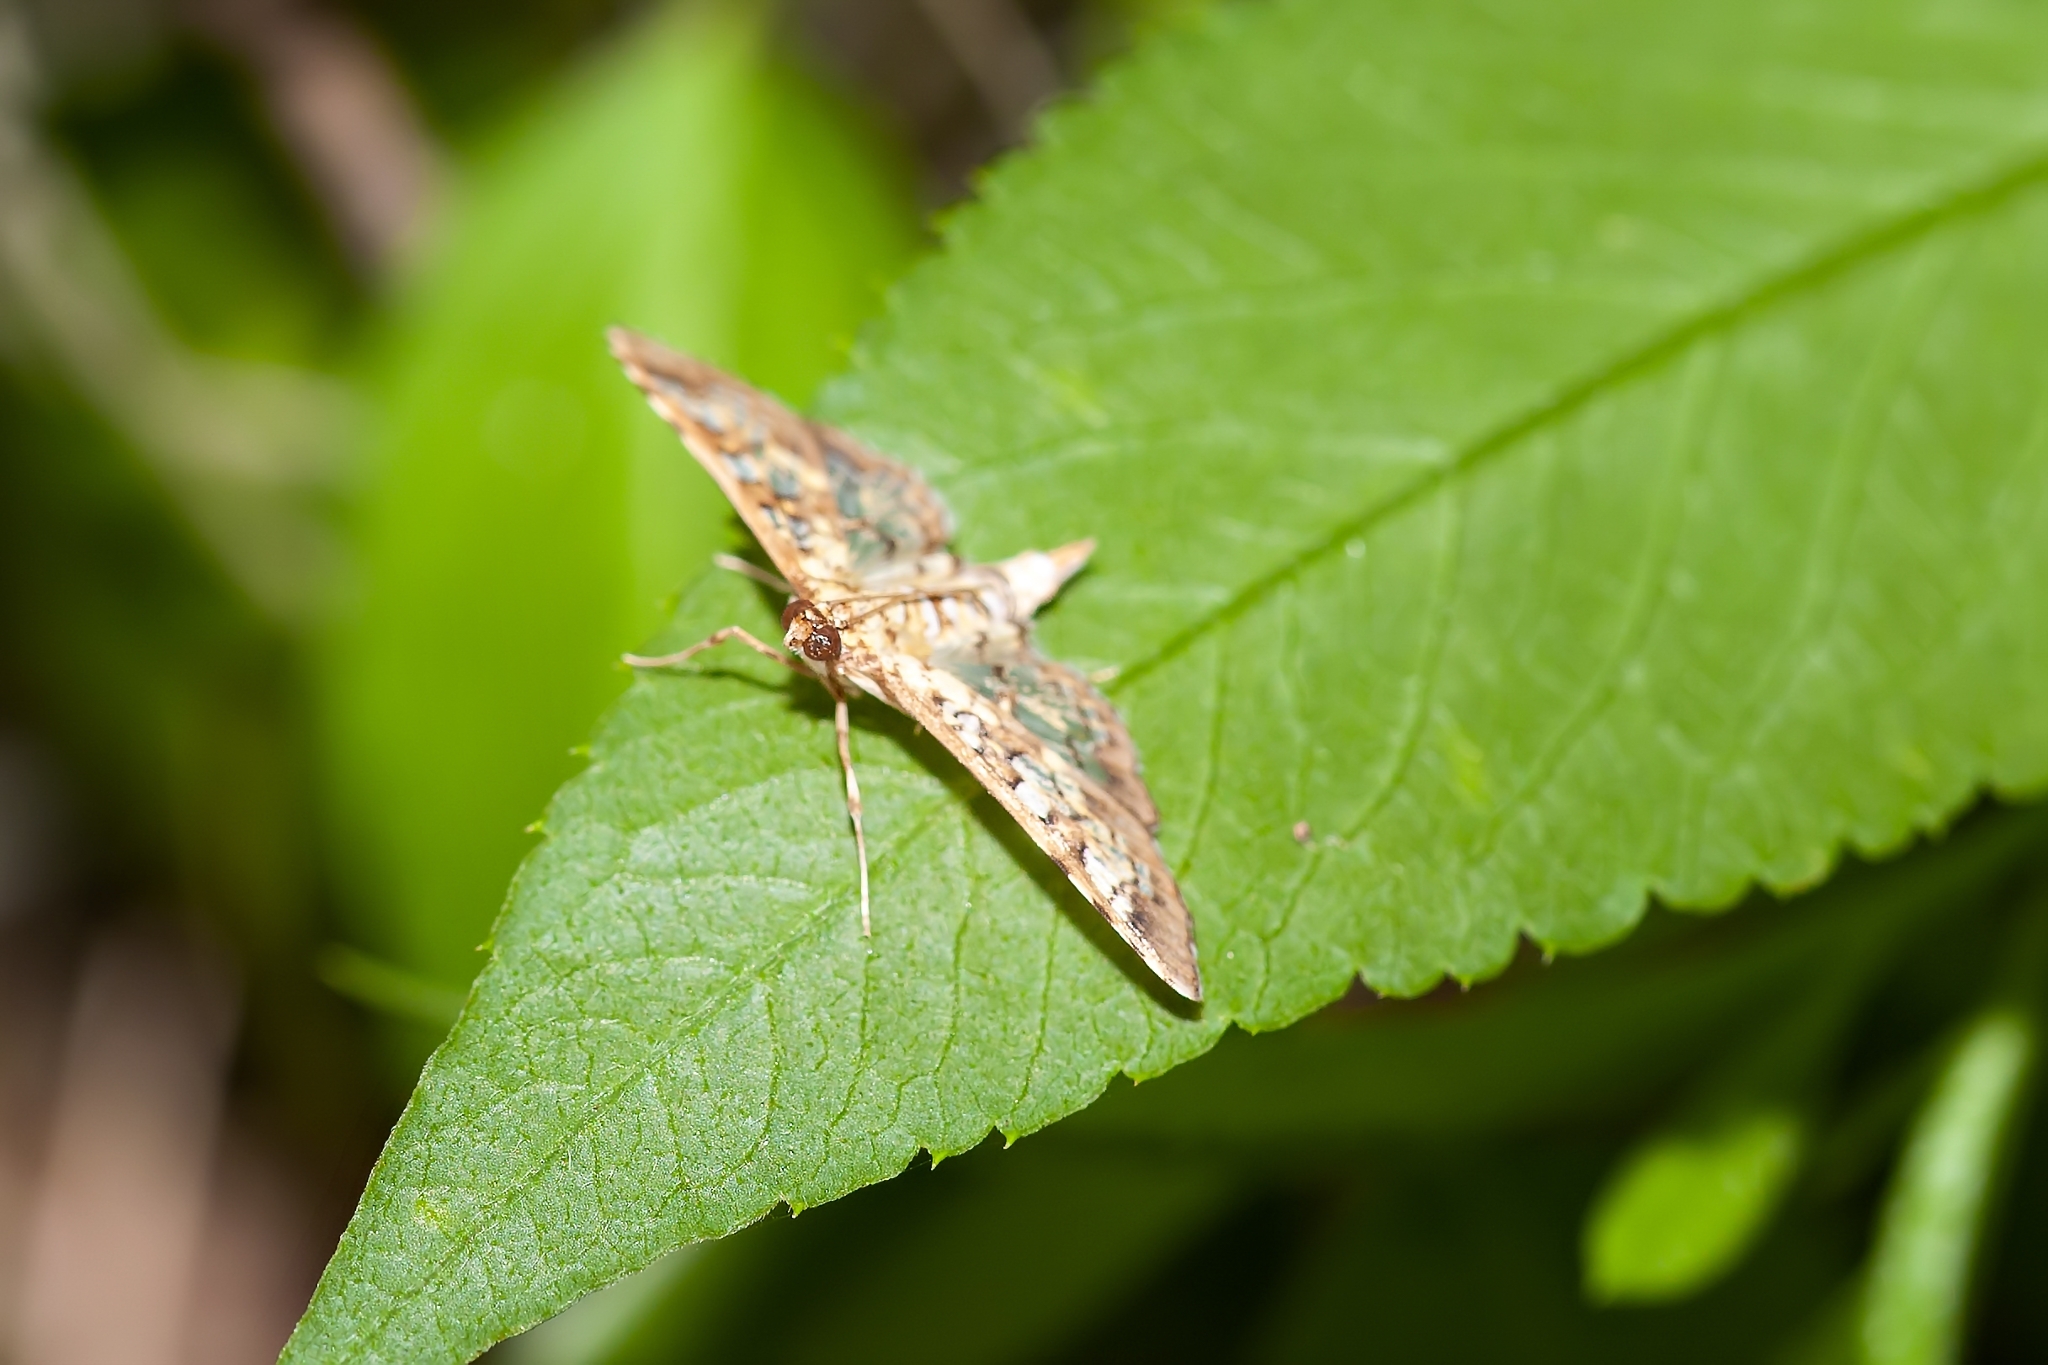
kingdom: Animalia
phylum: Arthropoda
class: Insecta
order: Lepidoptera
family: Crambidae
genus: Samea
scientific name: Samea ecclesialis
